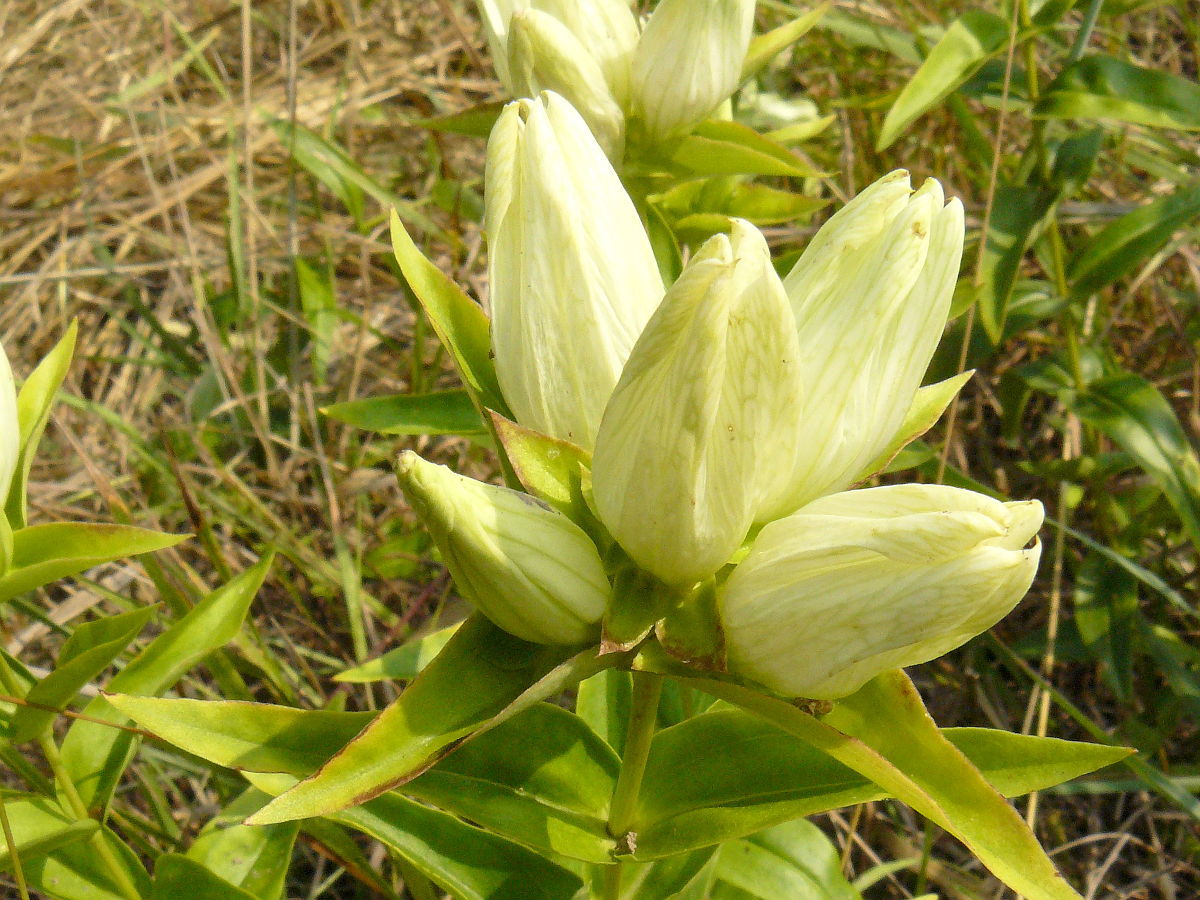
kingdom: Plantae
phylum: Tracheophyta
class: Magnoliopsida
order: Gentianales
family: Gentianaceae
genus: Gentiana
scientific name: Gentiana alba
